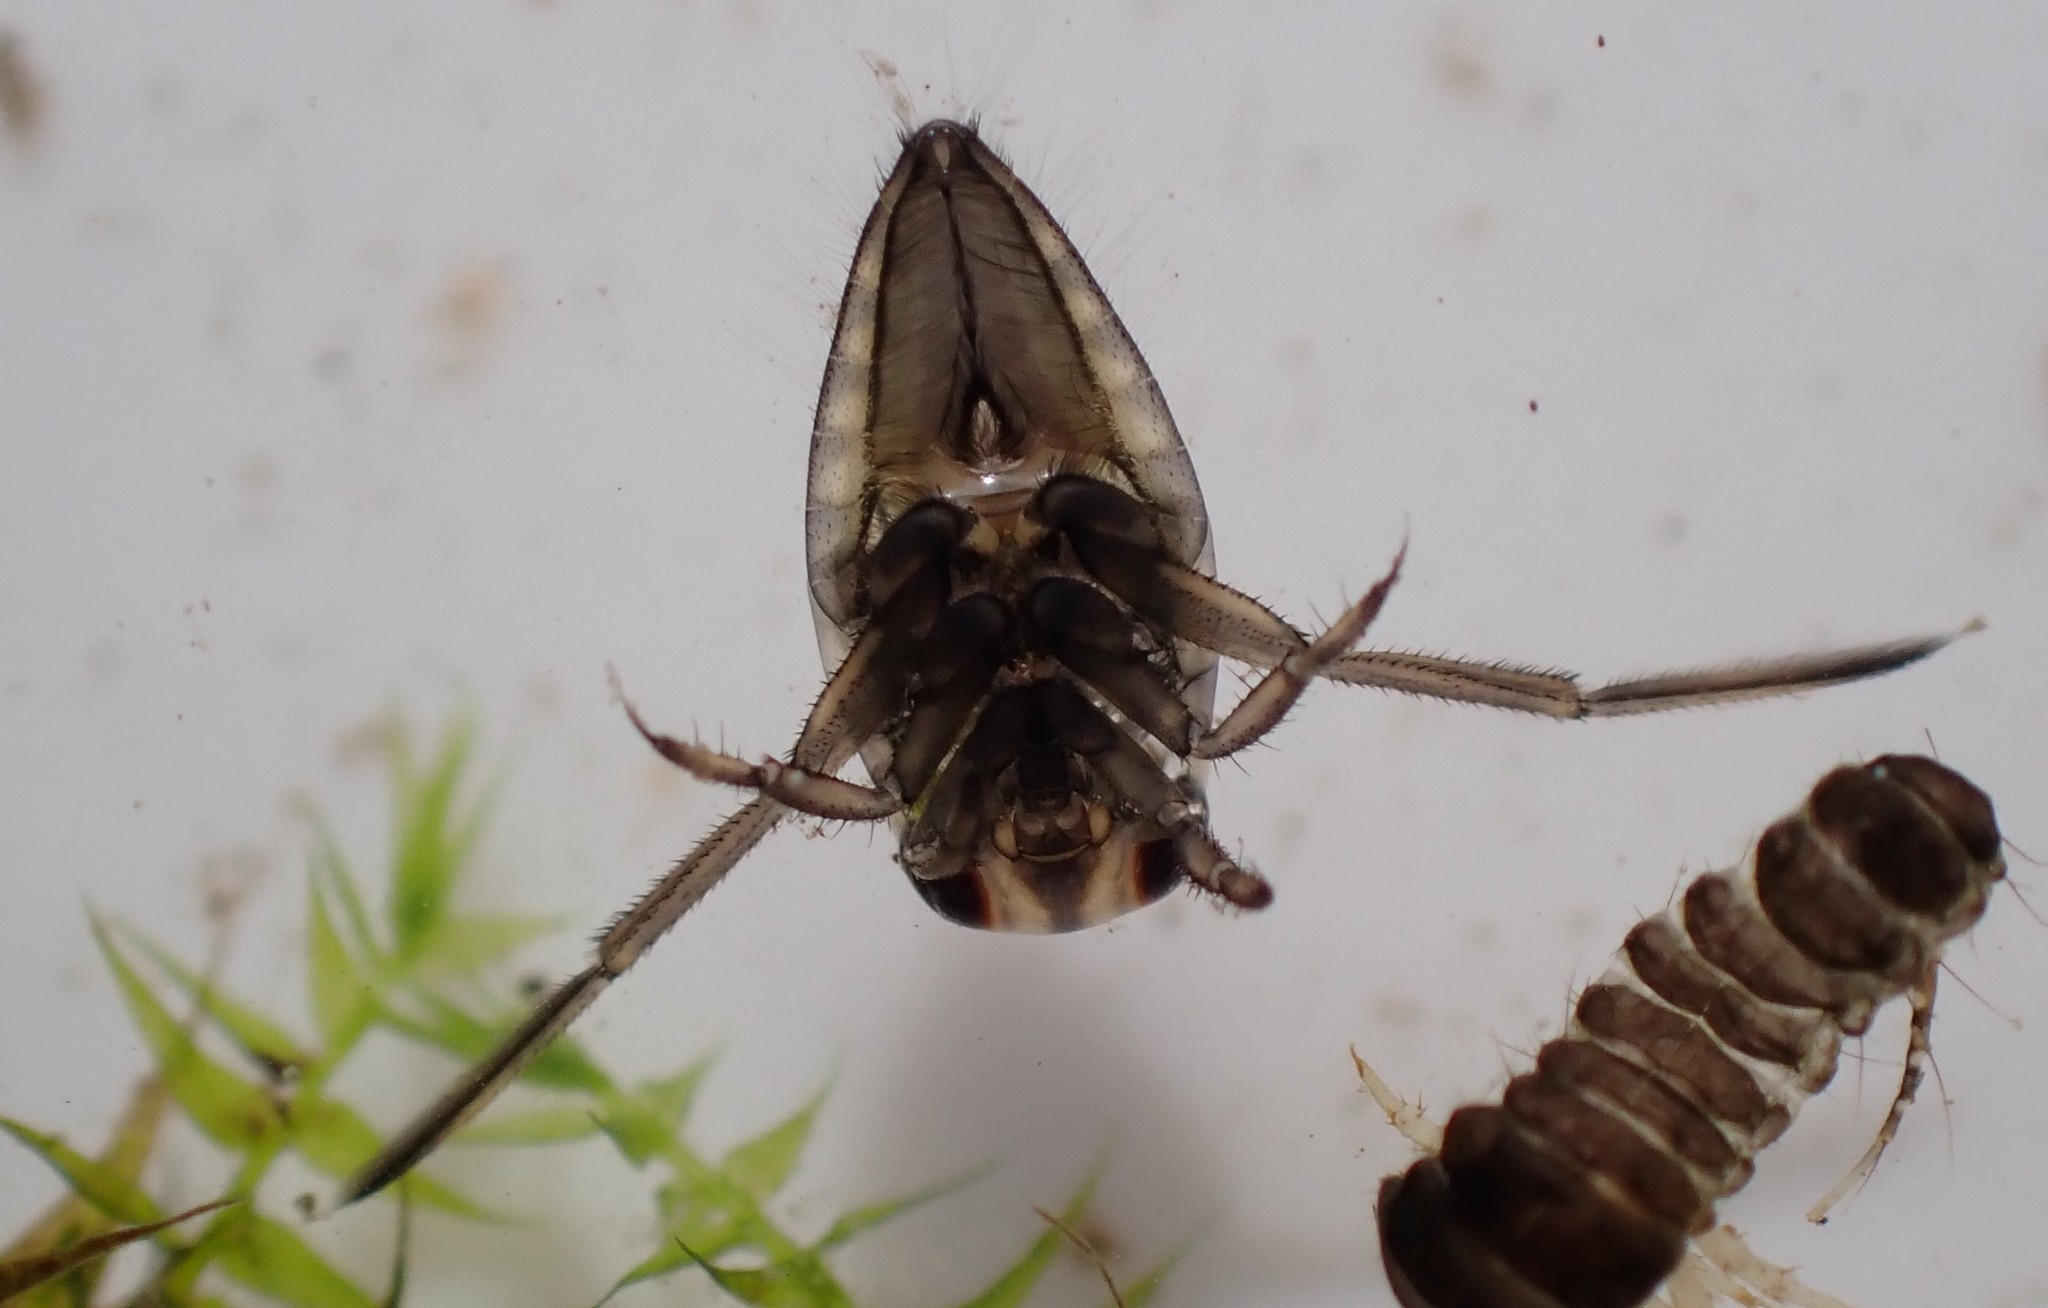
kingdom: Animalia
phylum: Arthropoda
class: Insecta
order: Hemiptera
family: Notonectidae
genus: Notonecta
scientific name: Notonecta
